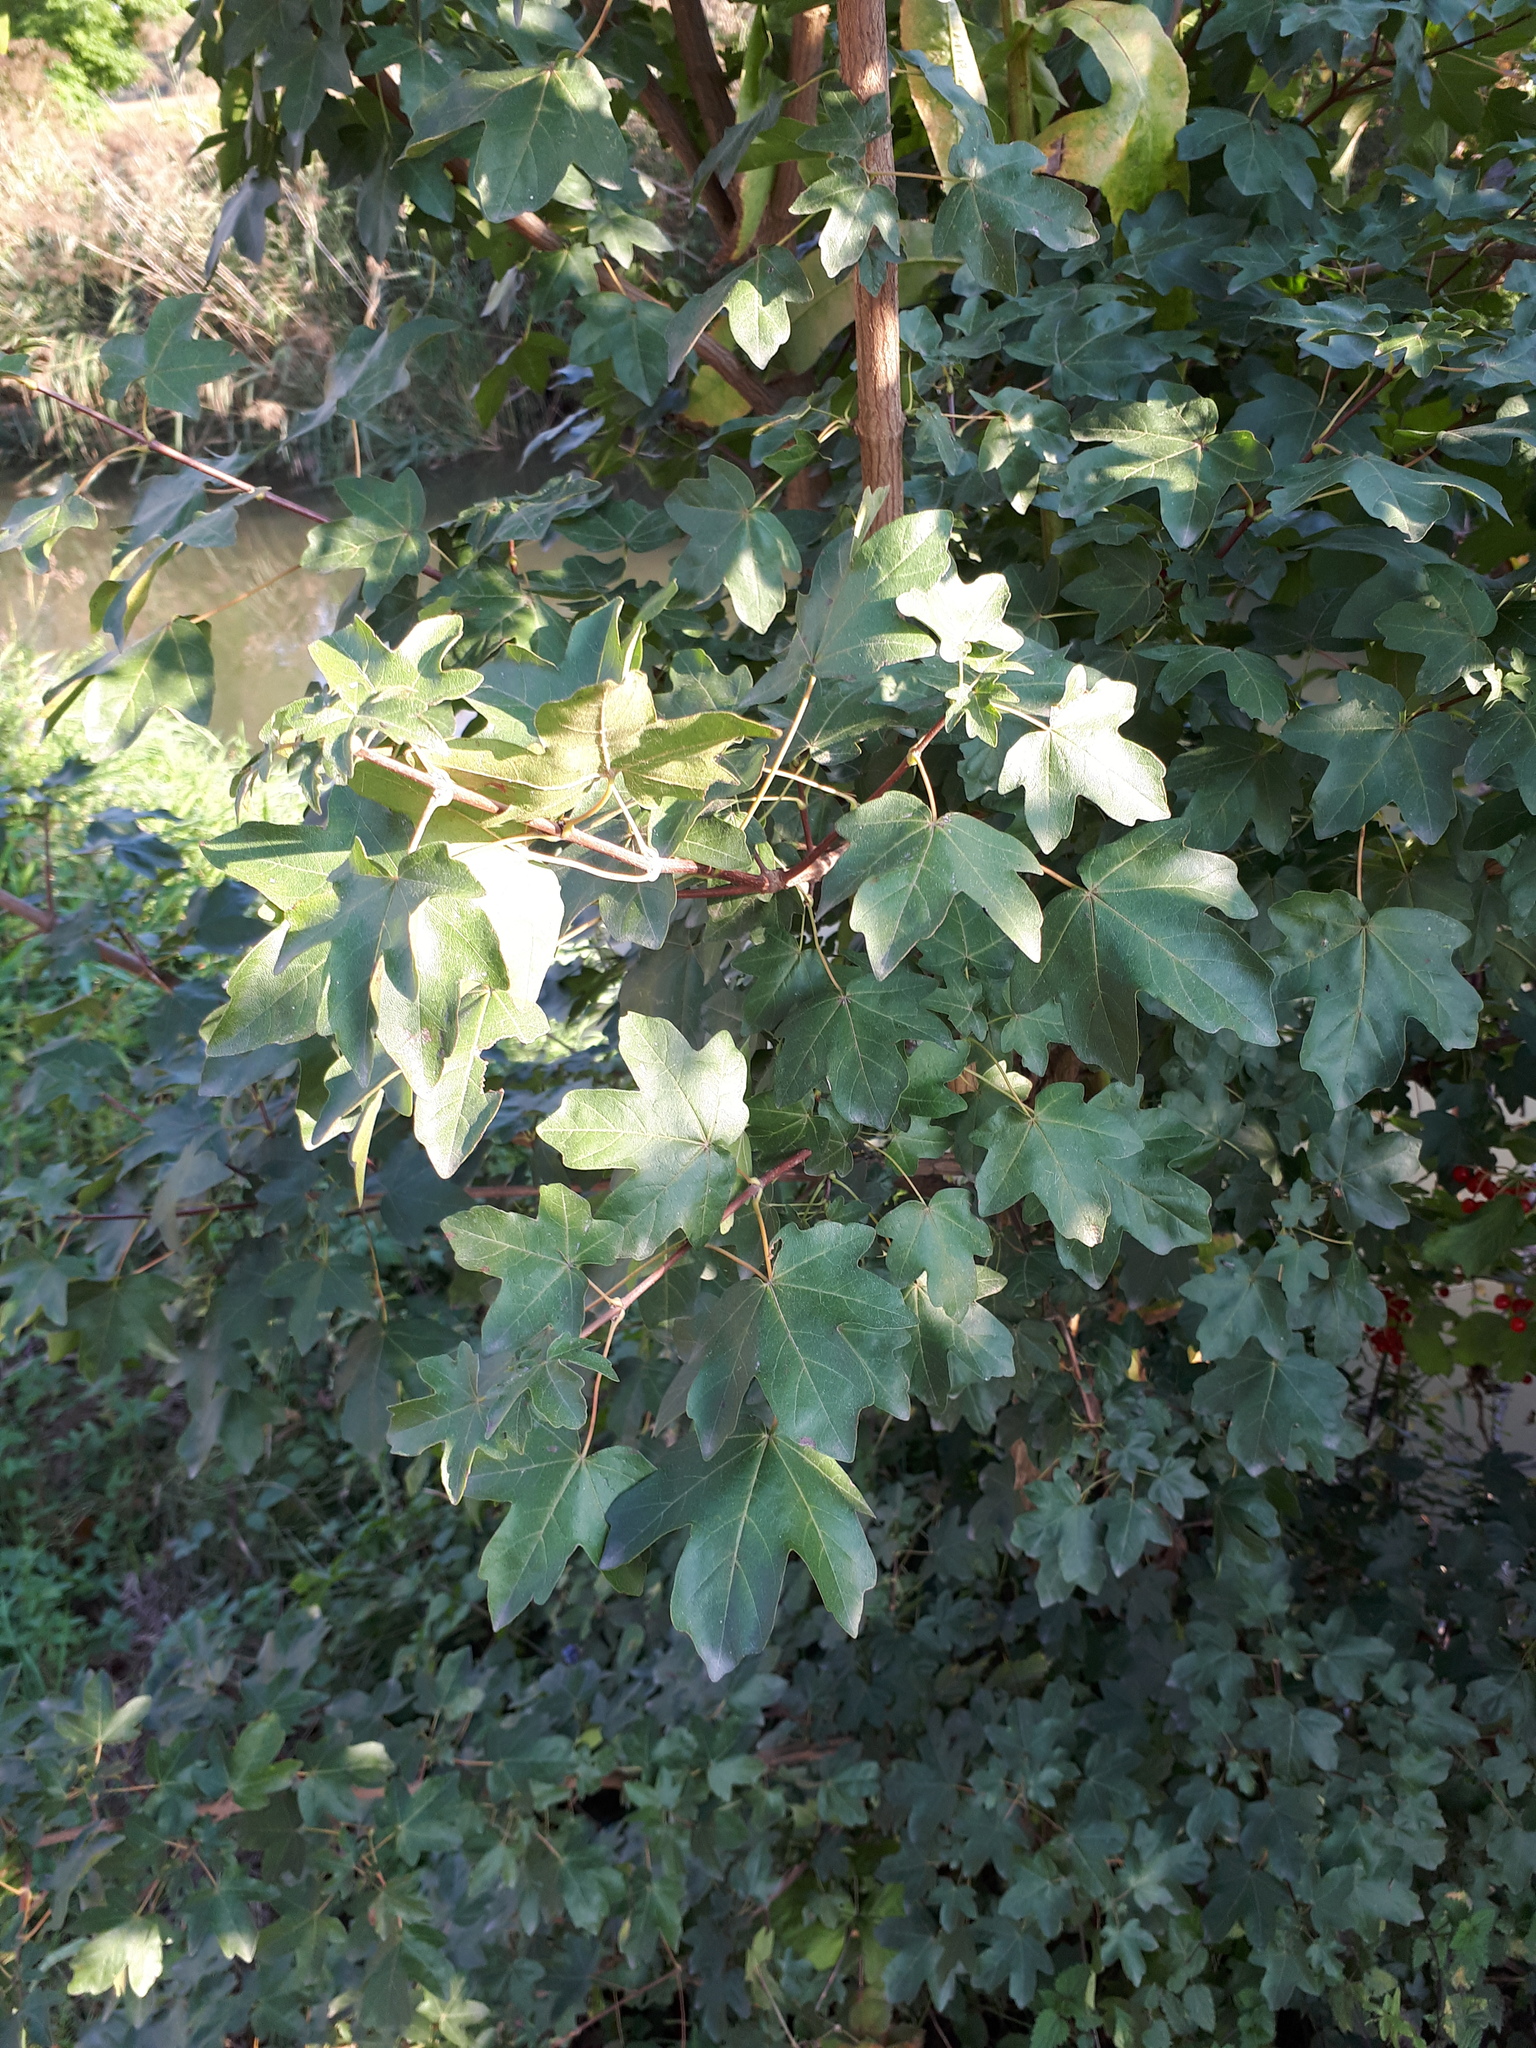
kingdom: Plantae
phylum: Tracheophyta
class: Magnoliopsida
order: Sapindales
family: Sapindaceae
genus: Acer
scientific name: Acer campestre
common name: Field maple
